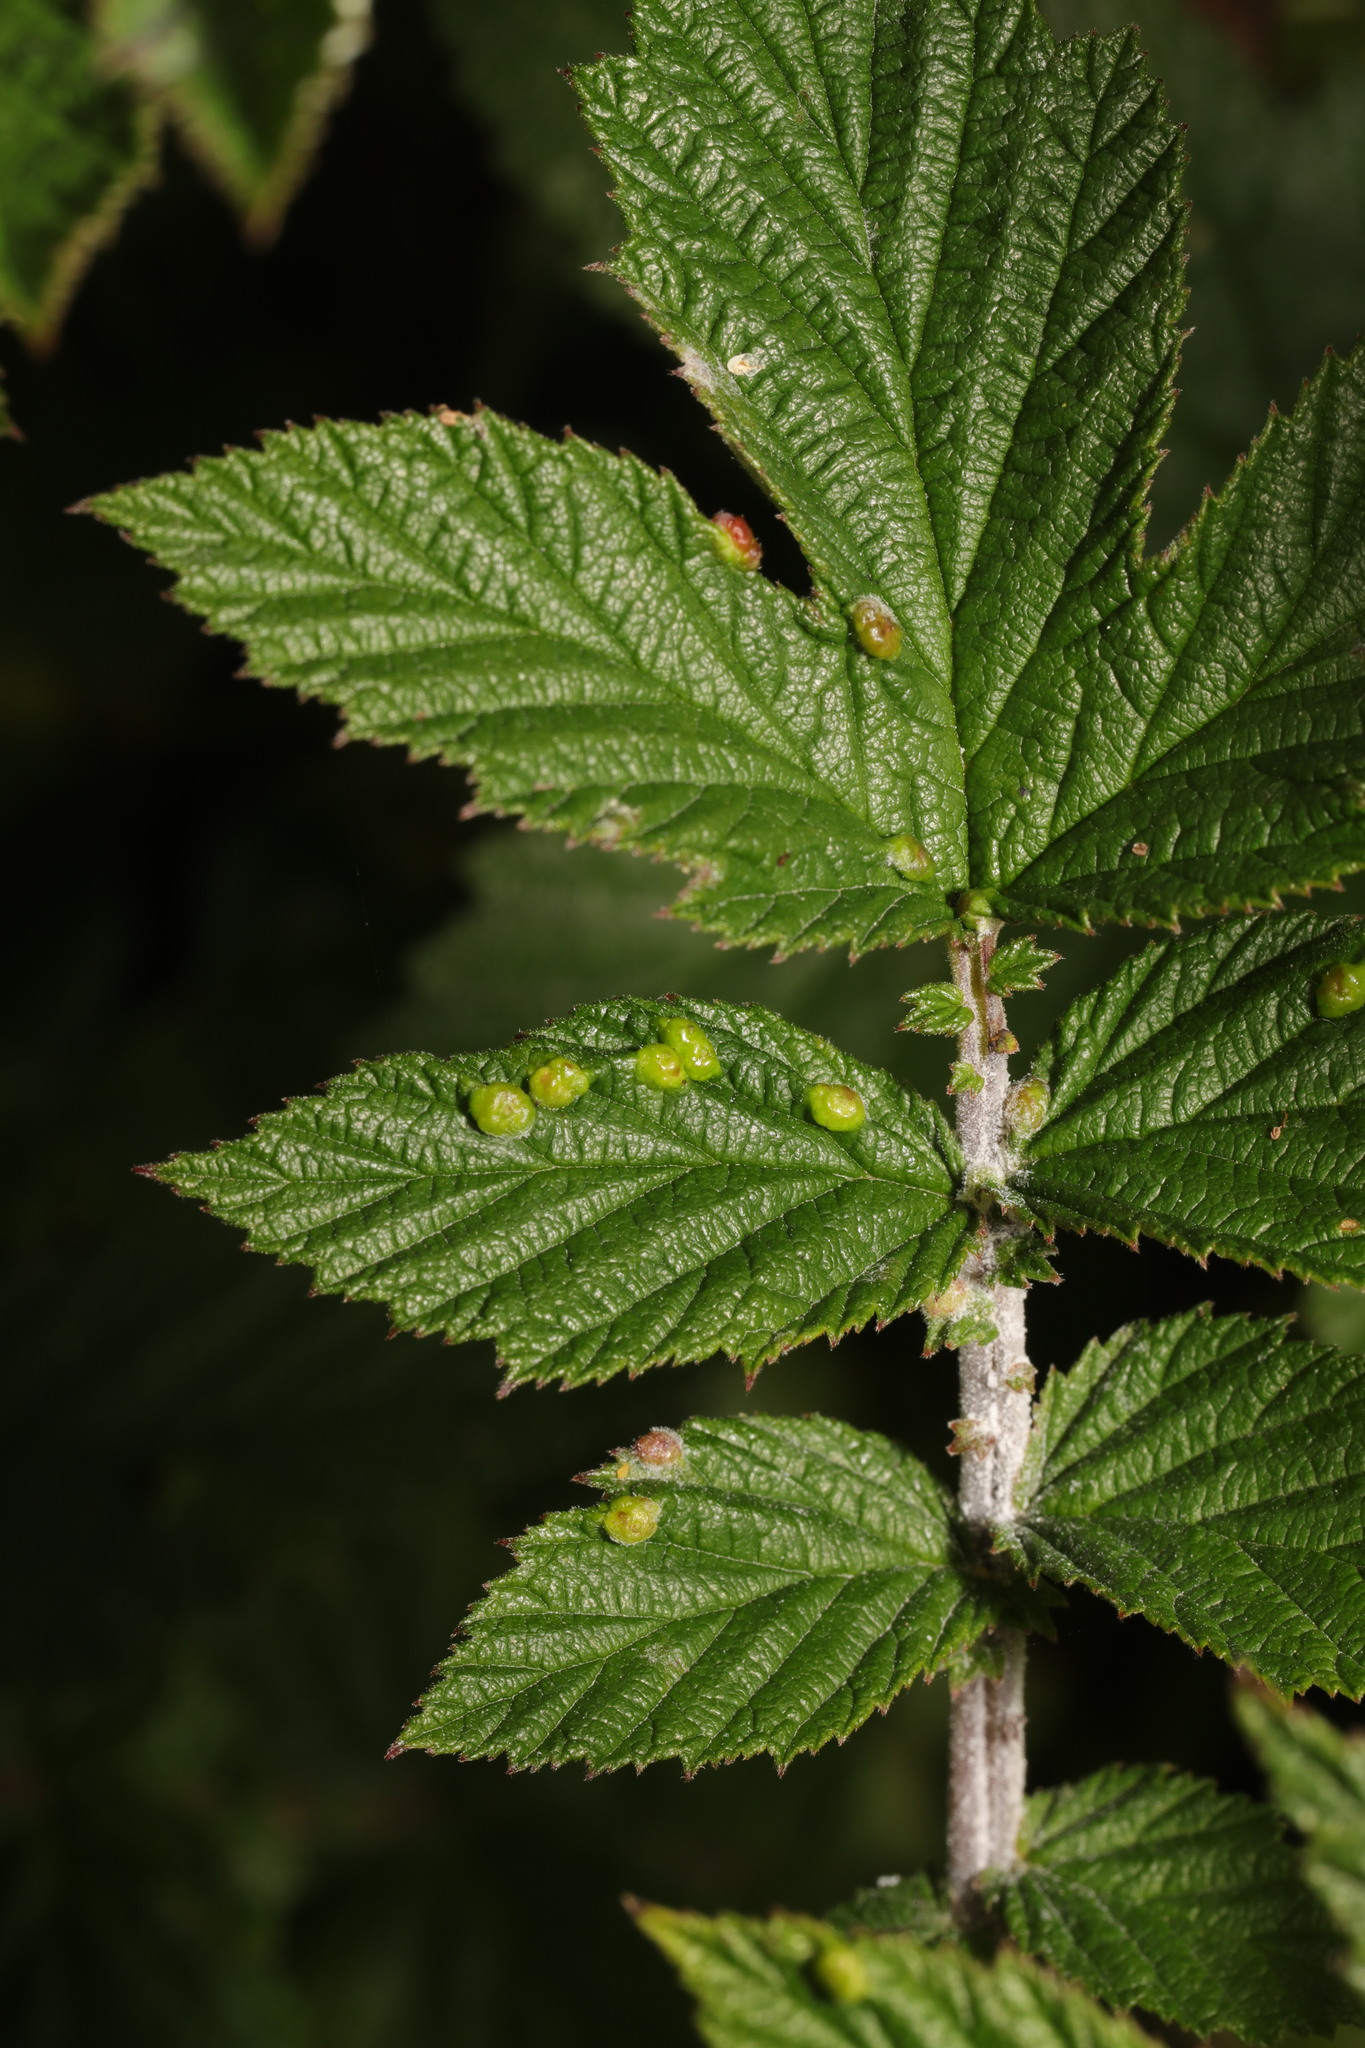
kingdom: Plantae
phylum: Tracheophyta
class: Magnoliopsida
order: Rosales
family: Rosaceae
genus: Filipendula
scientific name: Filipendula ulmaria
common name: Meadowsweet
